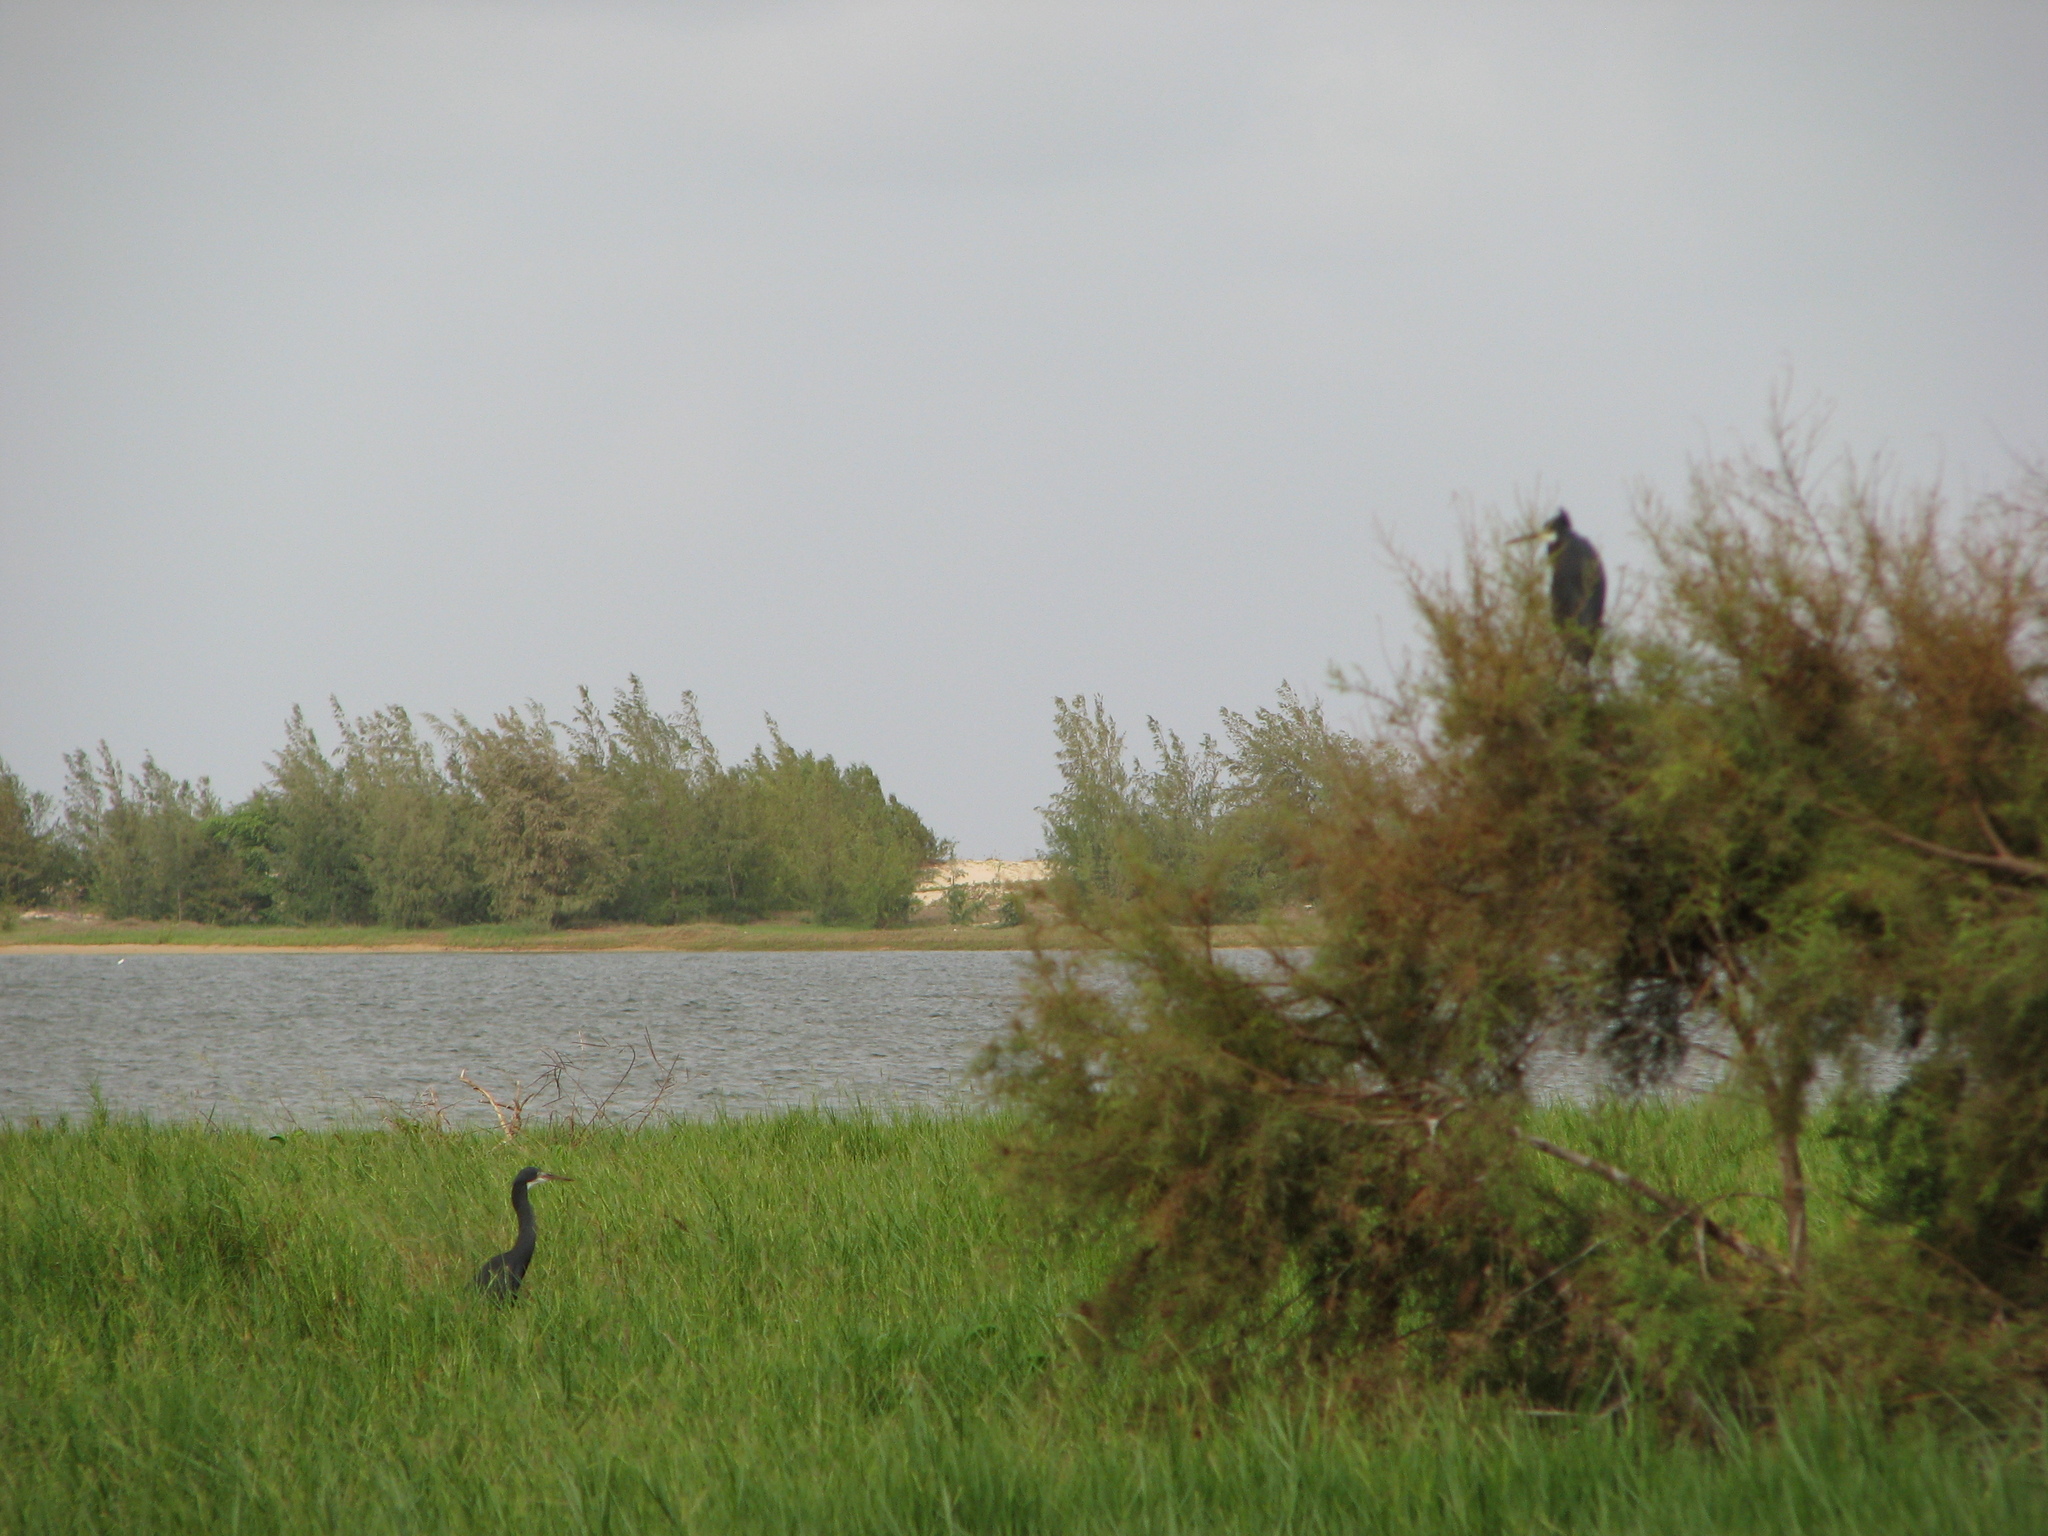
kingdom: Animalia
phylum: Chordata
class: Aves
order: Pelecaniformes
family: Ardeidae
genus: Egretta
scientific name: Egretta gularis
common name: Western reef-heron
